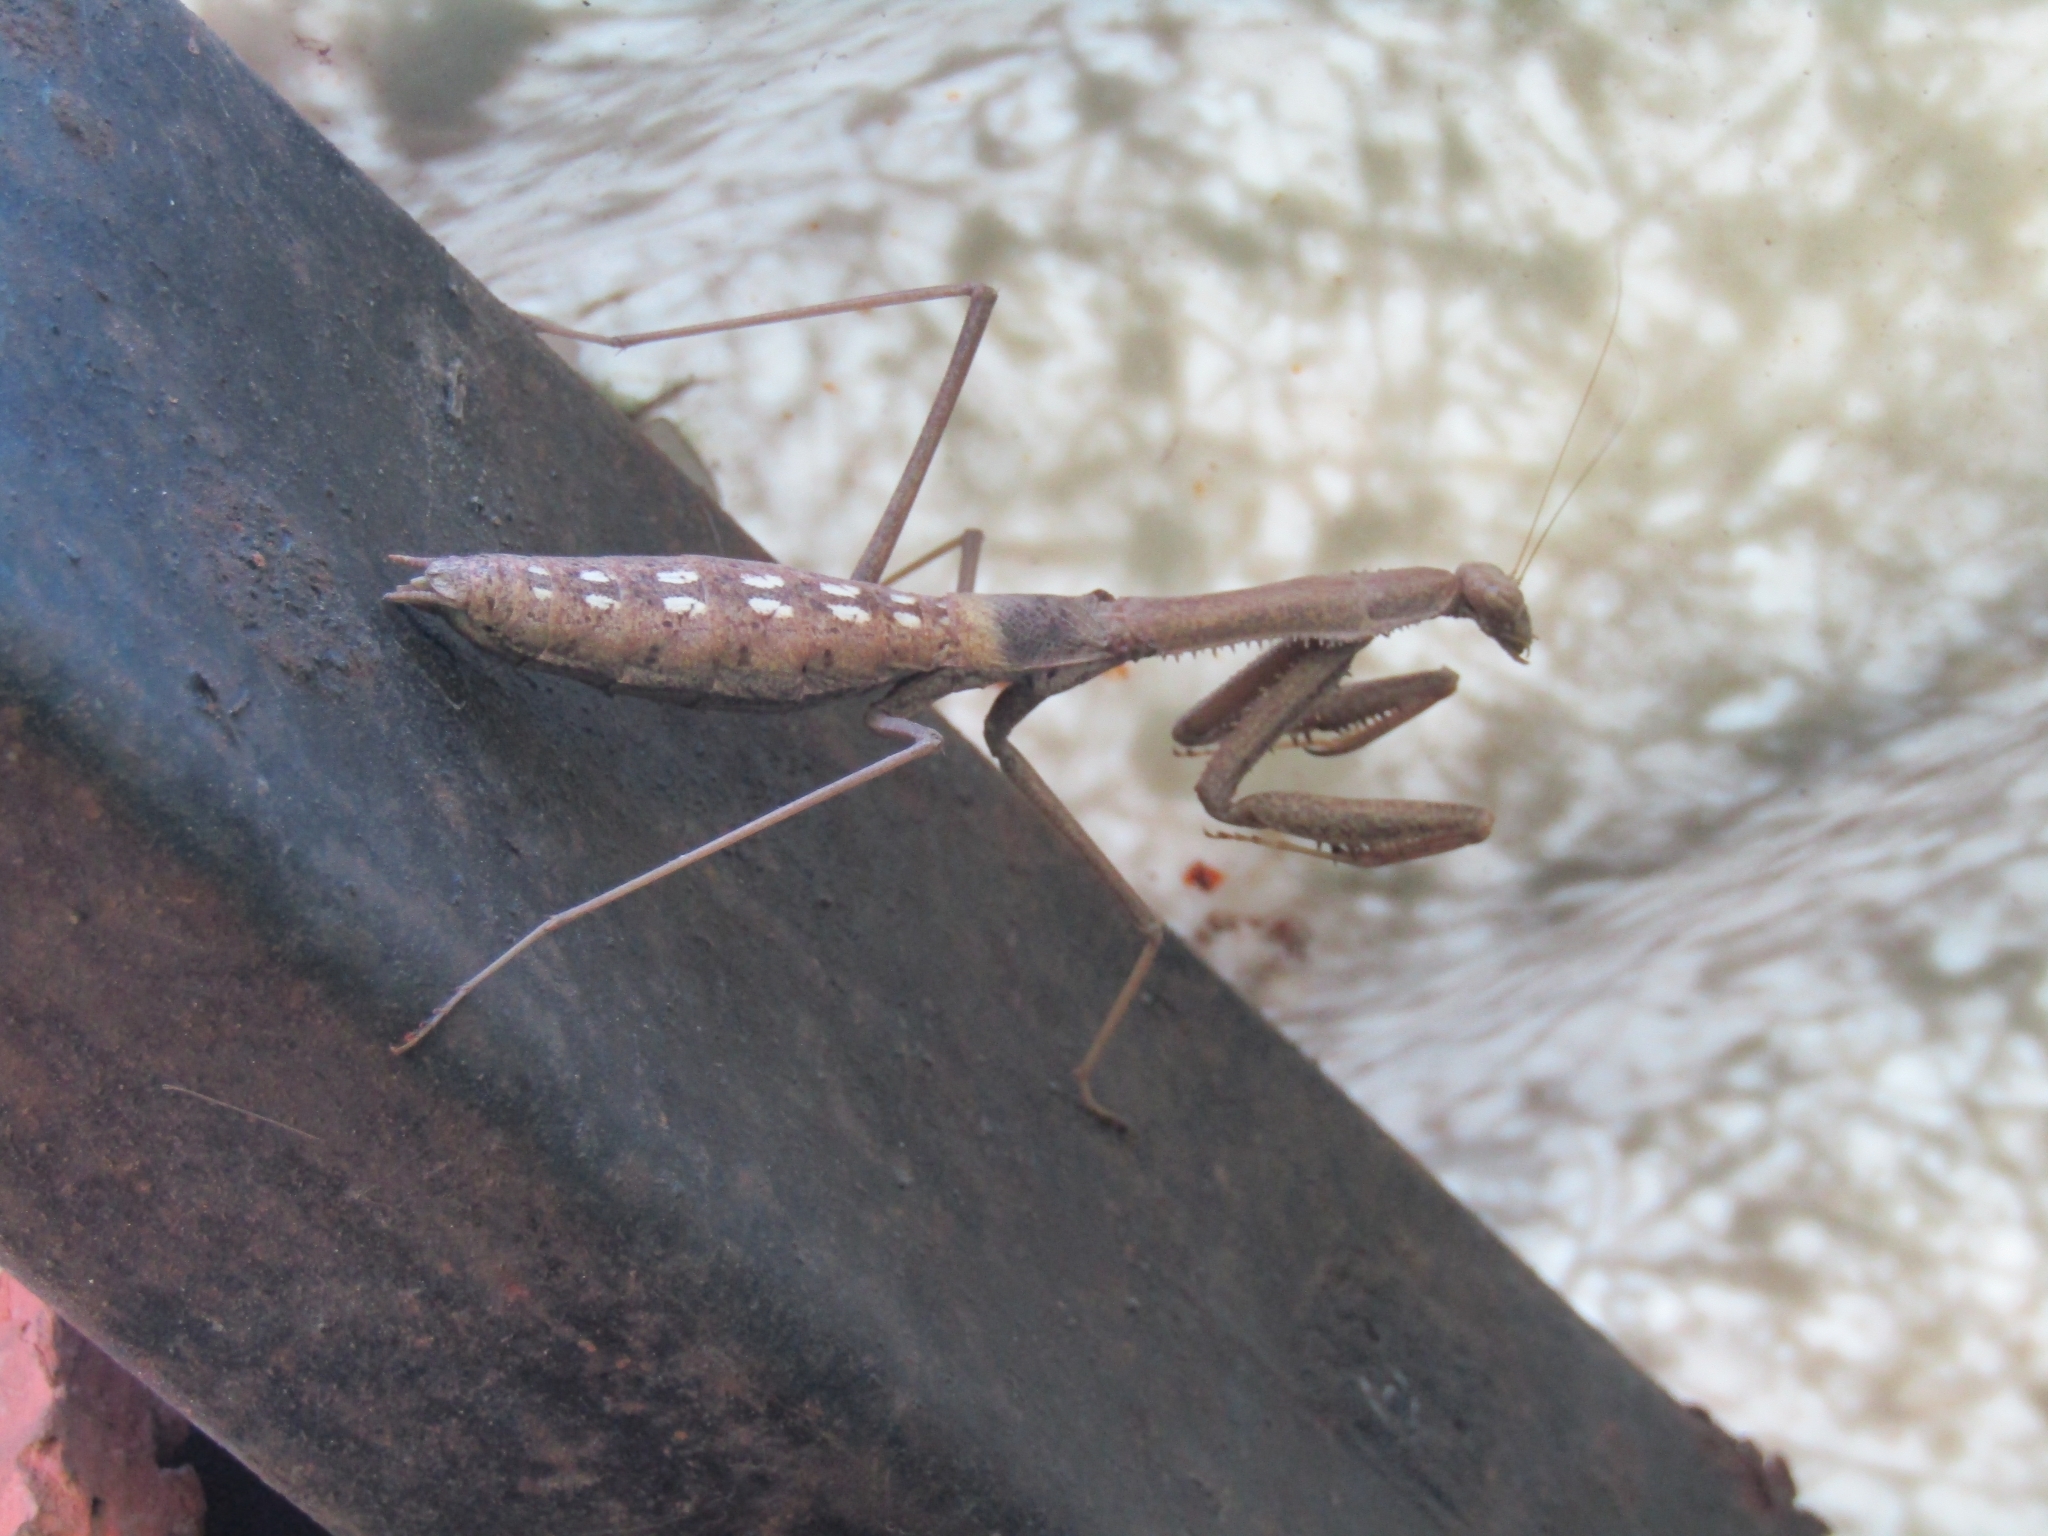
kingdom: Animalia
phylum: Arthropoda
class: Insecta
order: Mantodea
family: Coptopterygidae
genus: Coptopteryx
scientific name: Coptopteryx gayi
